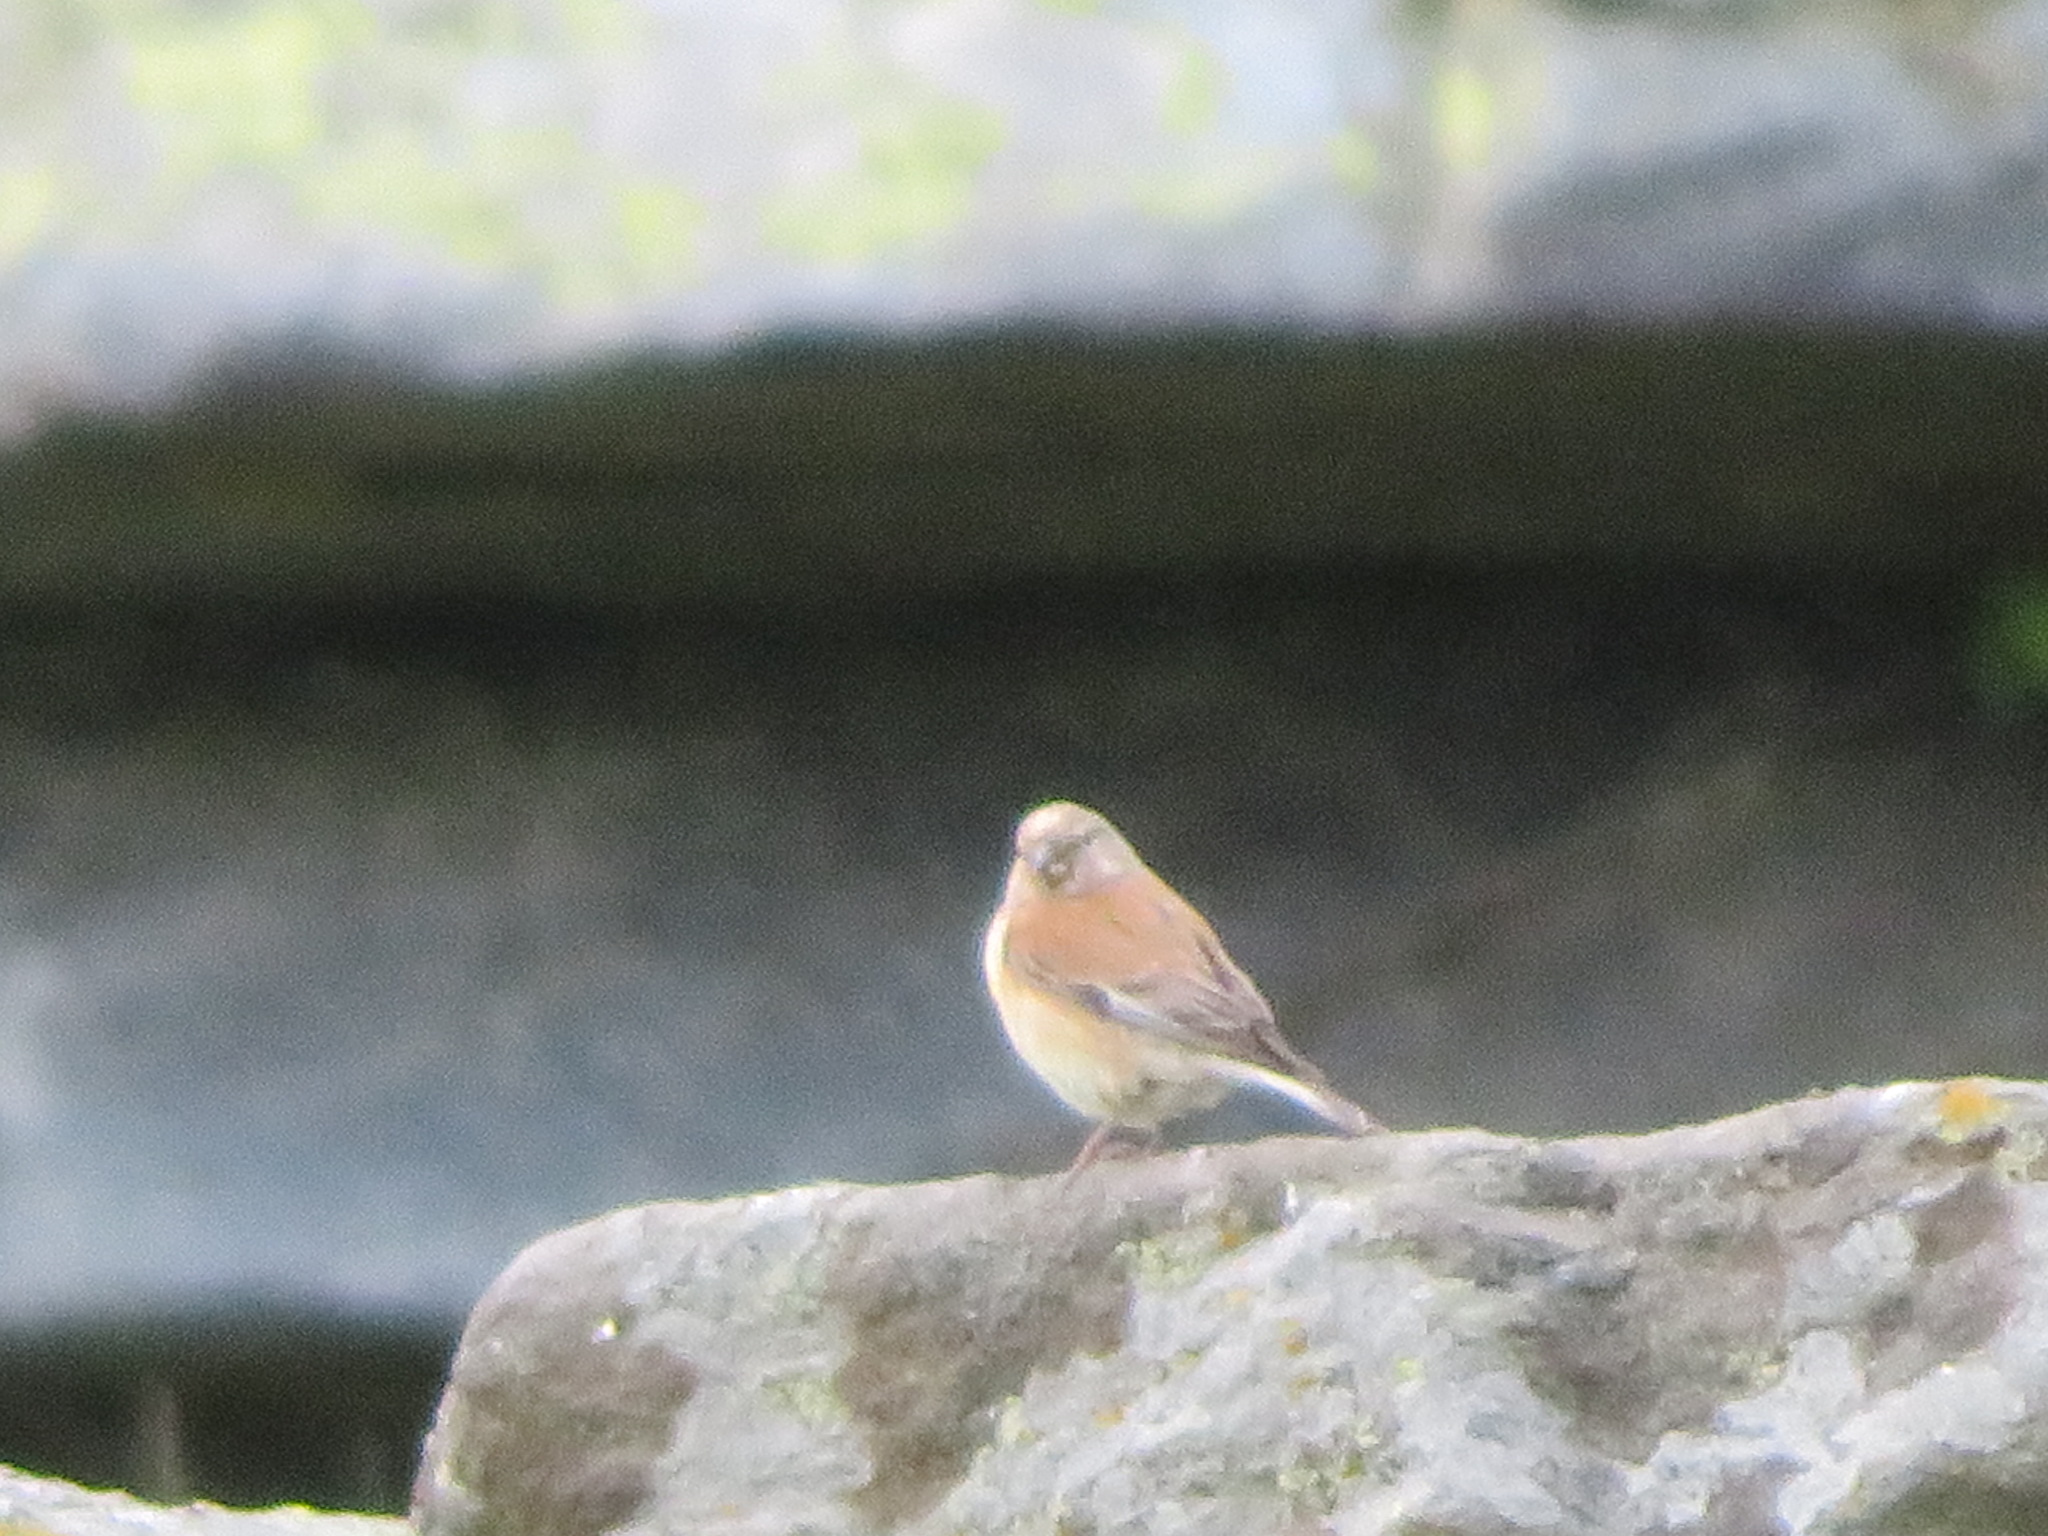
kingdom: Animalia
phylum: Chordata
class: Aves
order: Passeriformes
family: Fringillidae
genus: Linaria
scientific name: Linaria cannabina
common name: Common linnet
